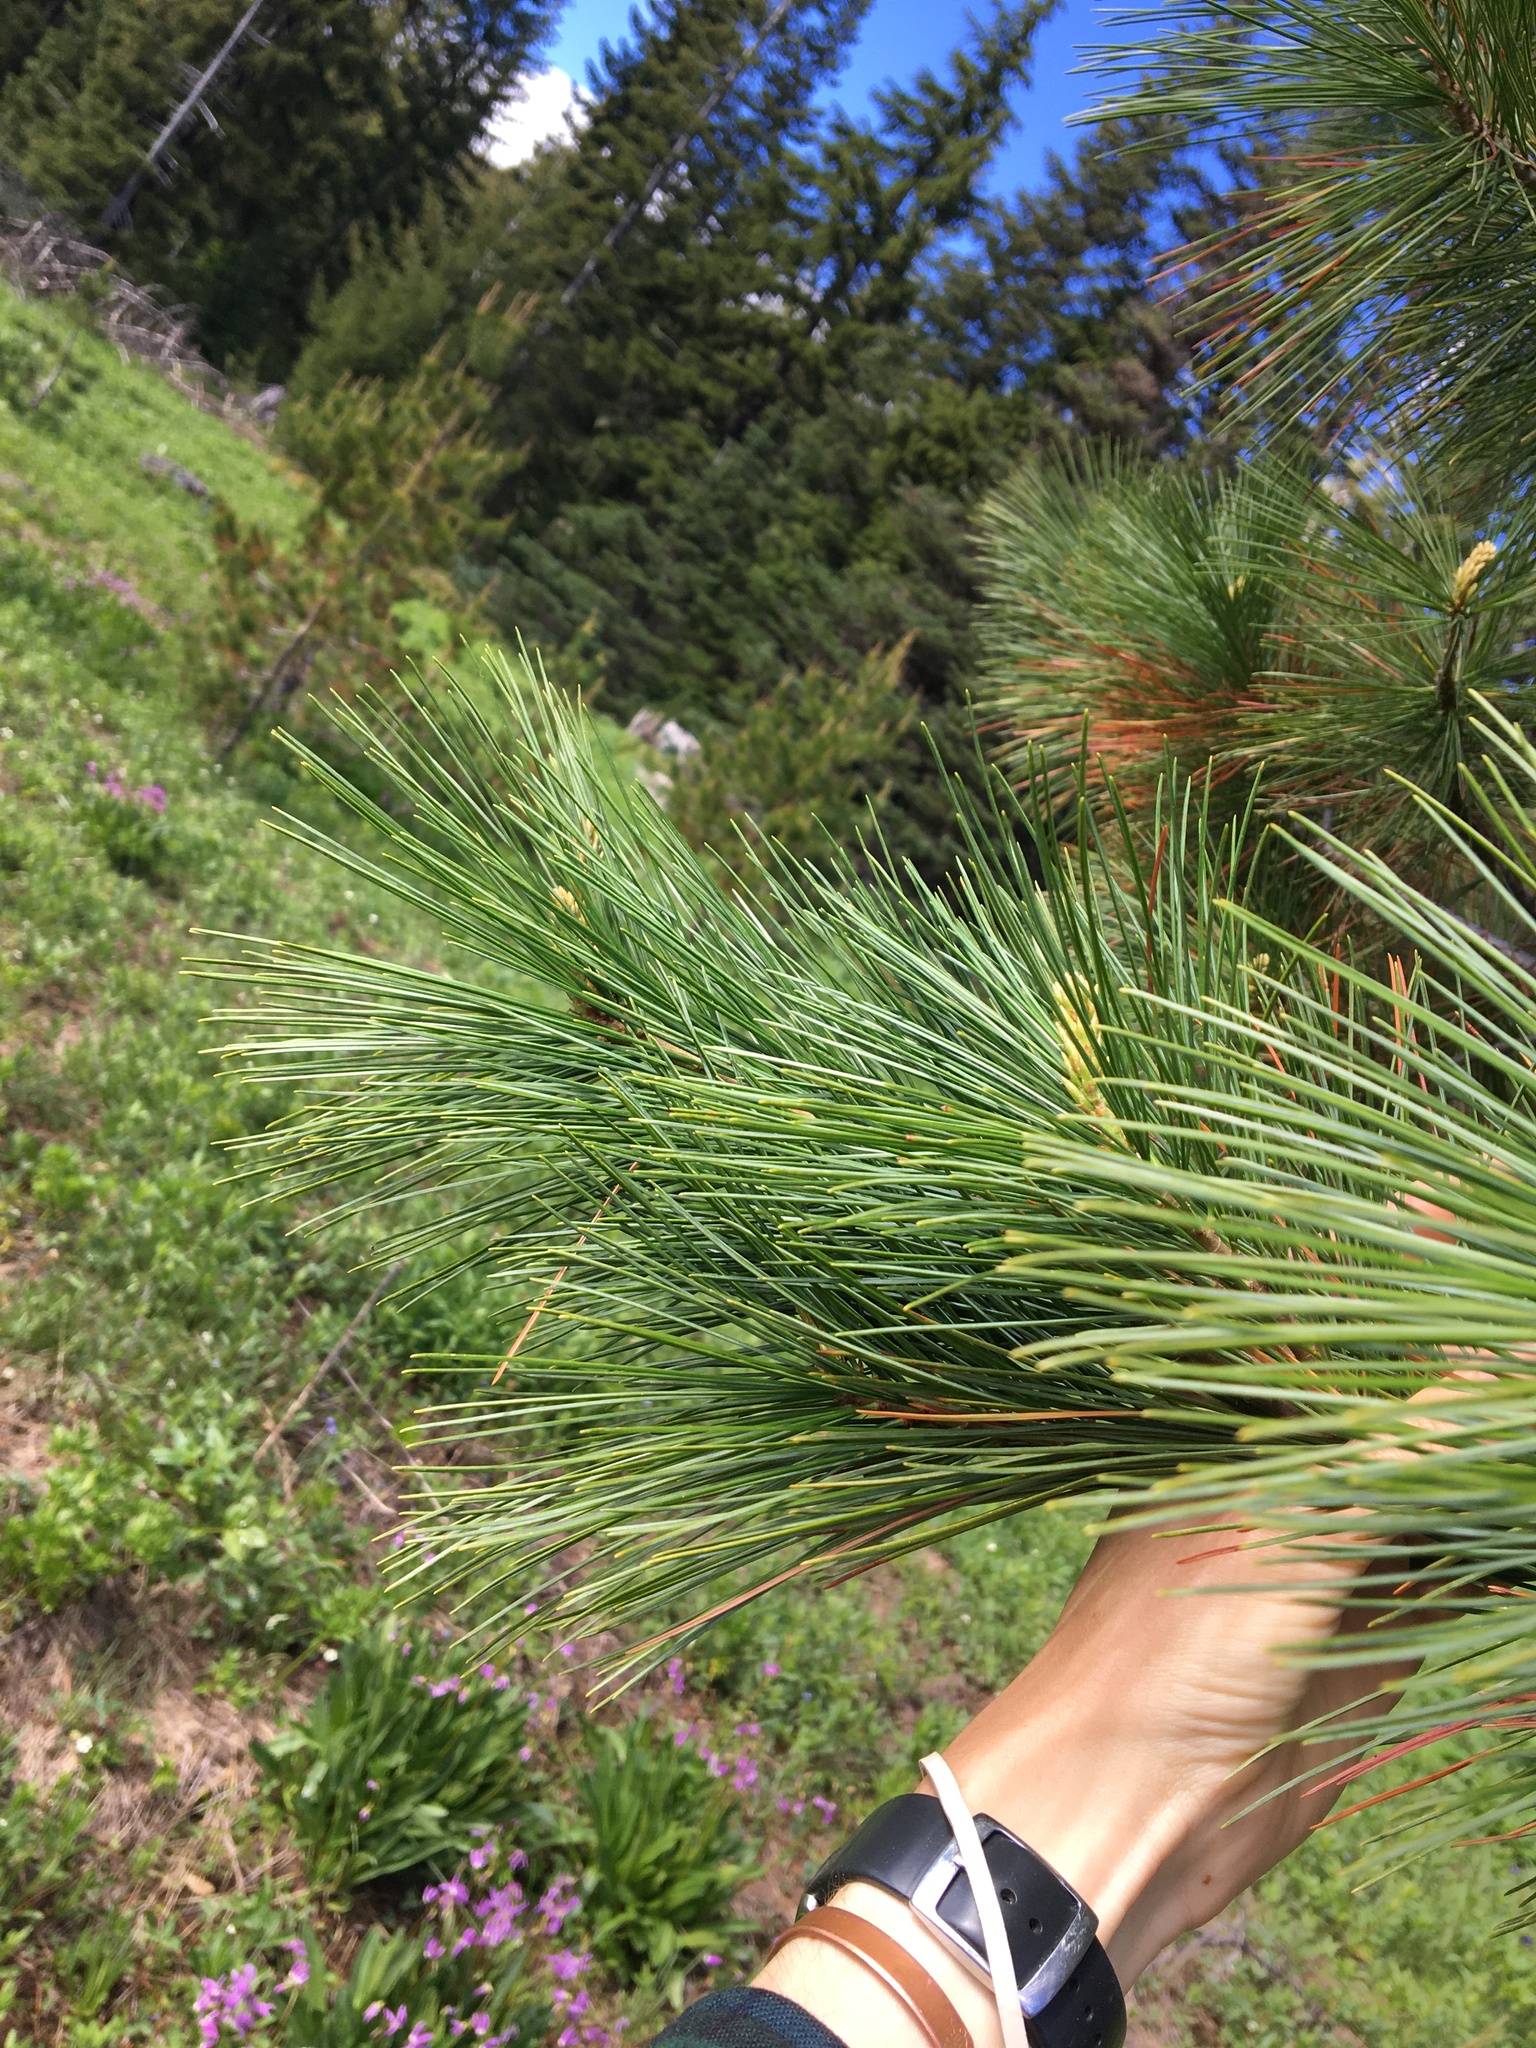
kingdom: Plantae
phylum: Tracheophyta
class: Pinopsida
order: Pinales
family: Pinaceae
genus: Pinus
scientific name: Pinus monticola
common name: Western white pine
